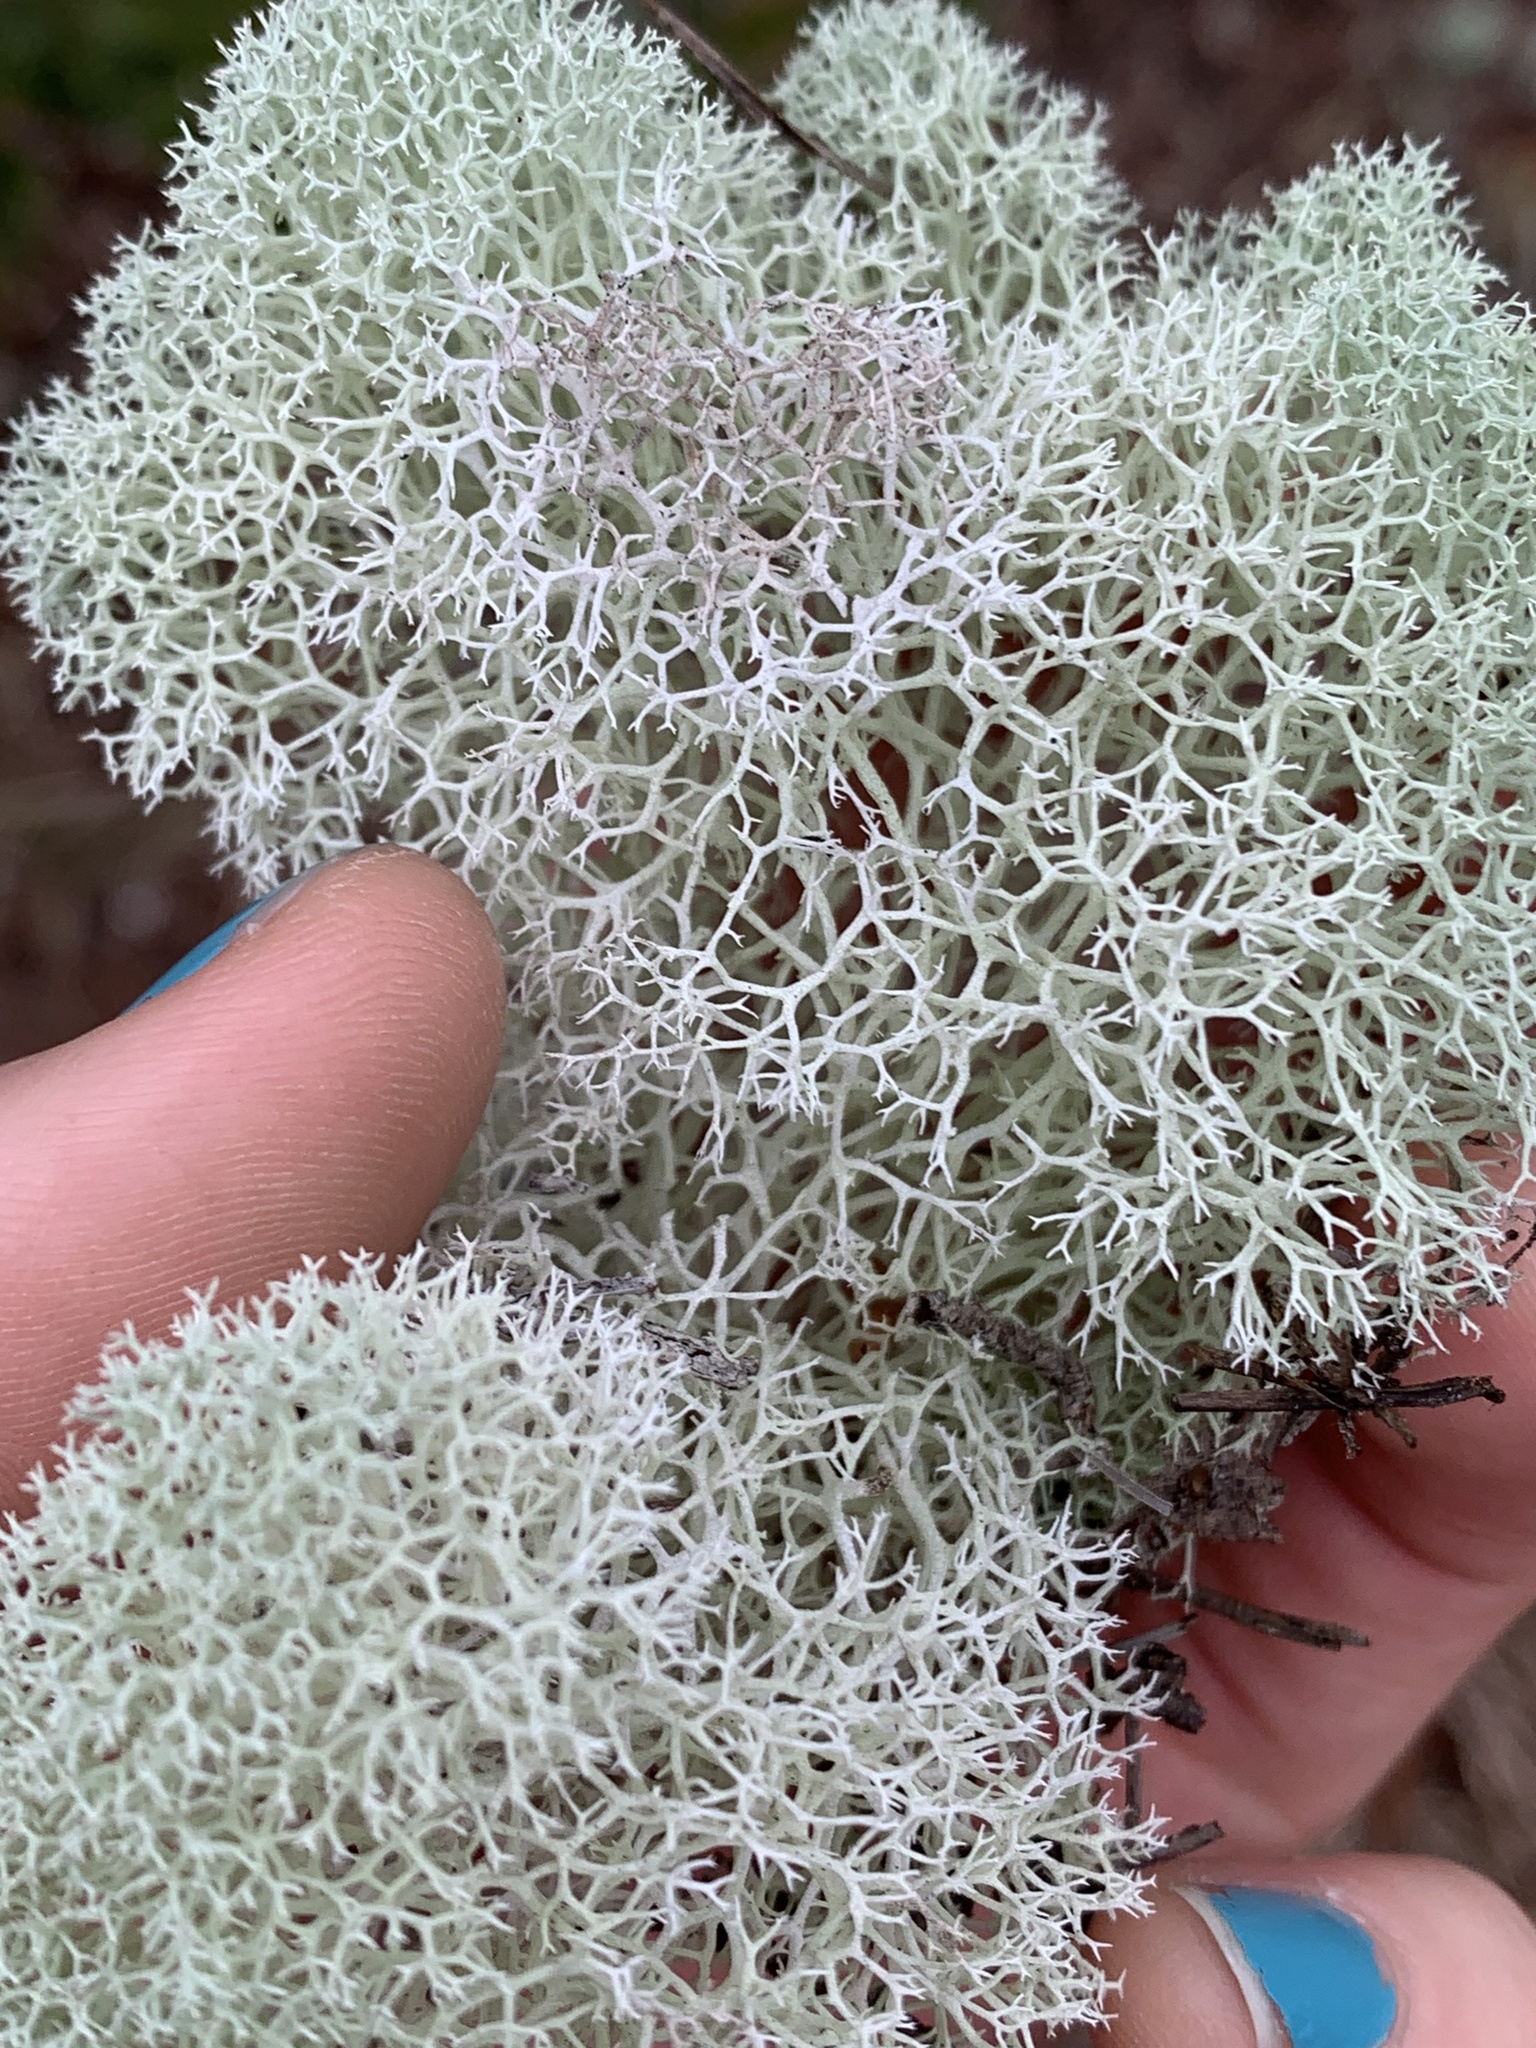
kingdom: Fungi
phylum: Ascomycota
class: Lecanoromycetes
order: Lecanorales
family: Cladoniaceae
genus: Cladonia
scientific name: Cladonia evansii
